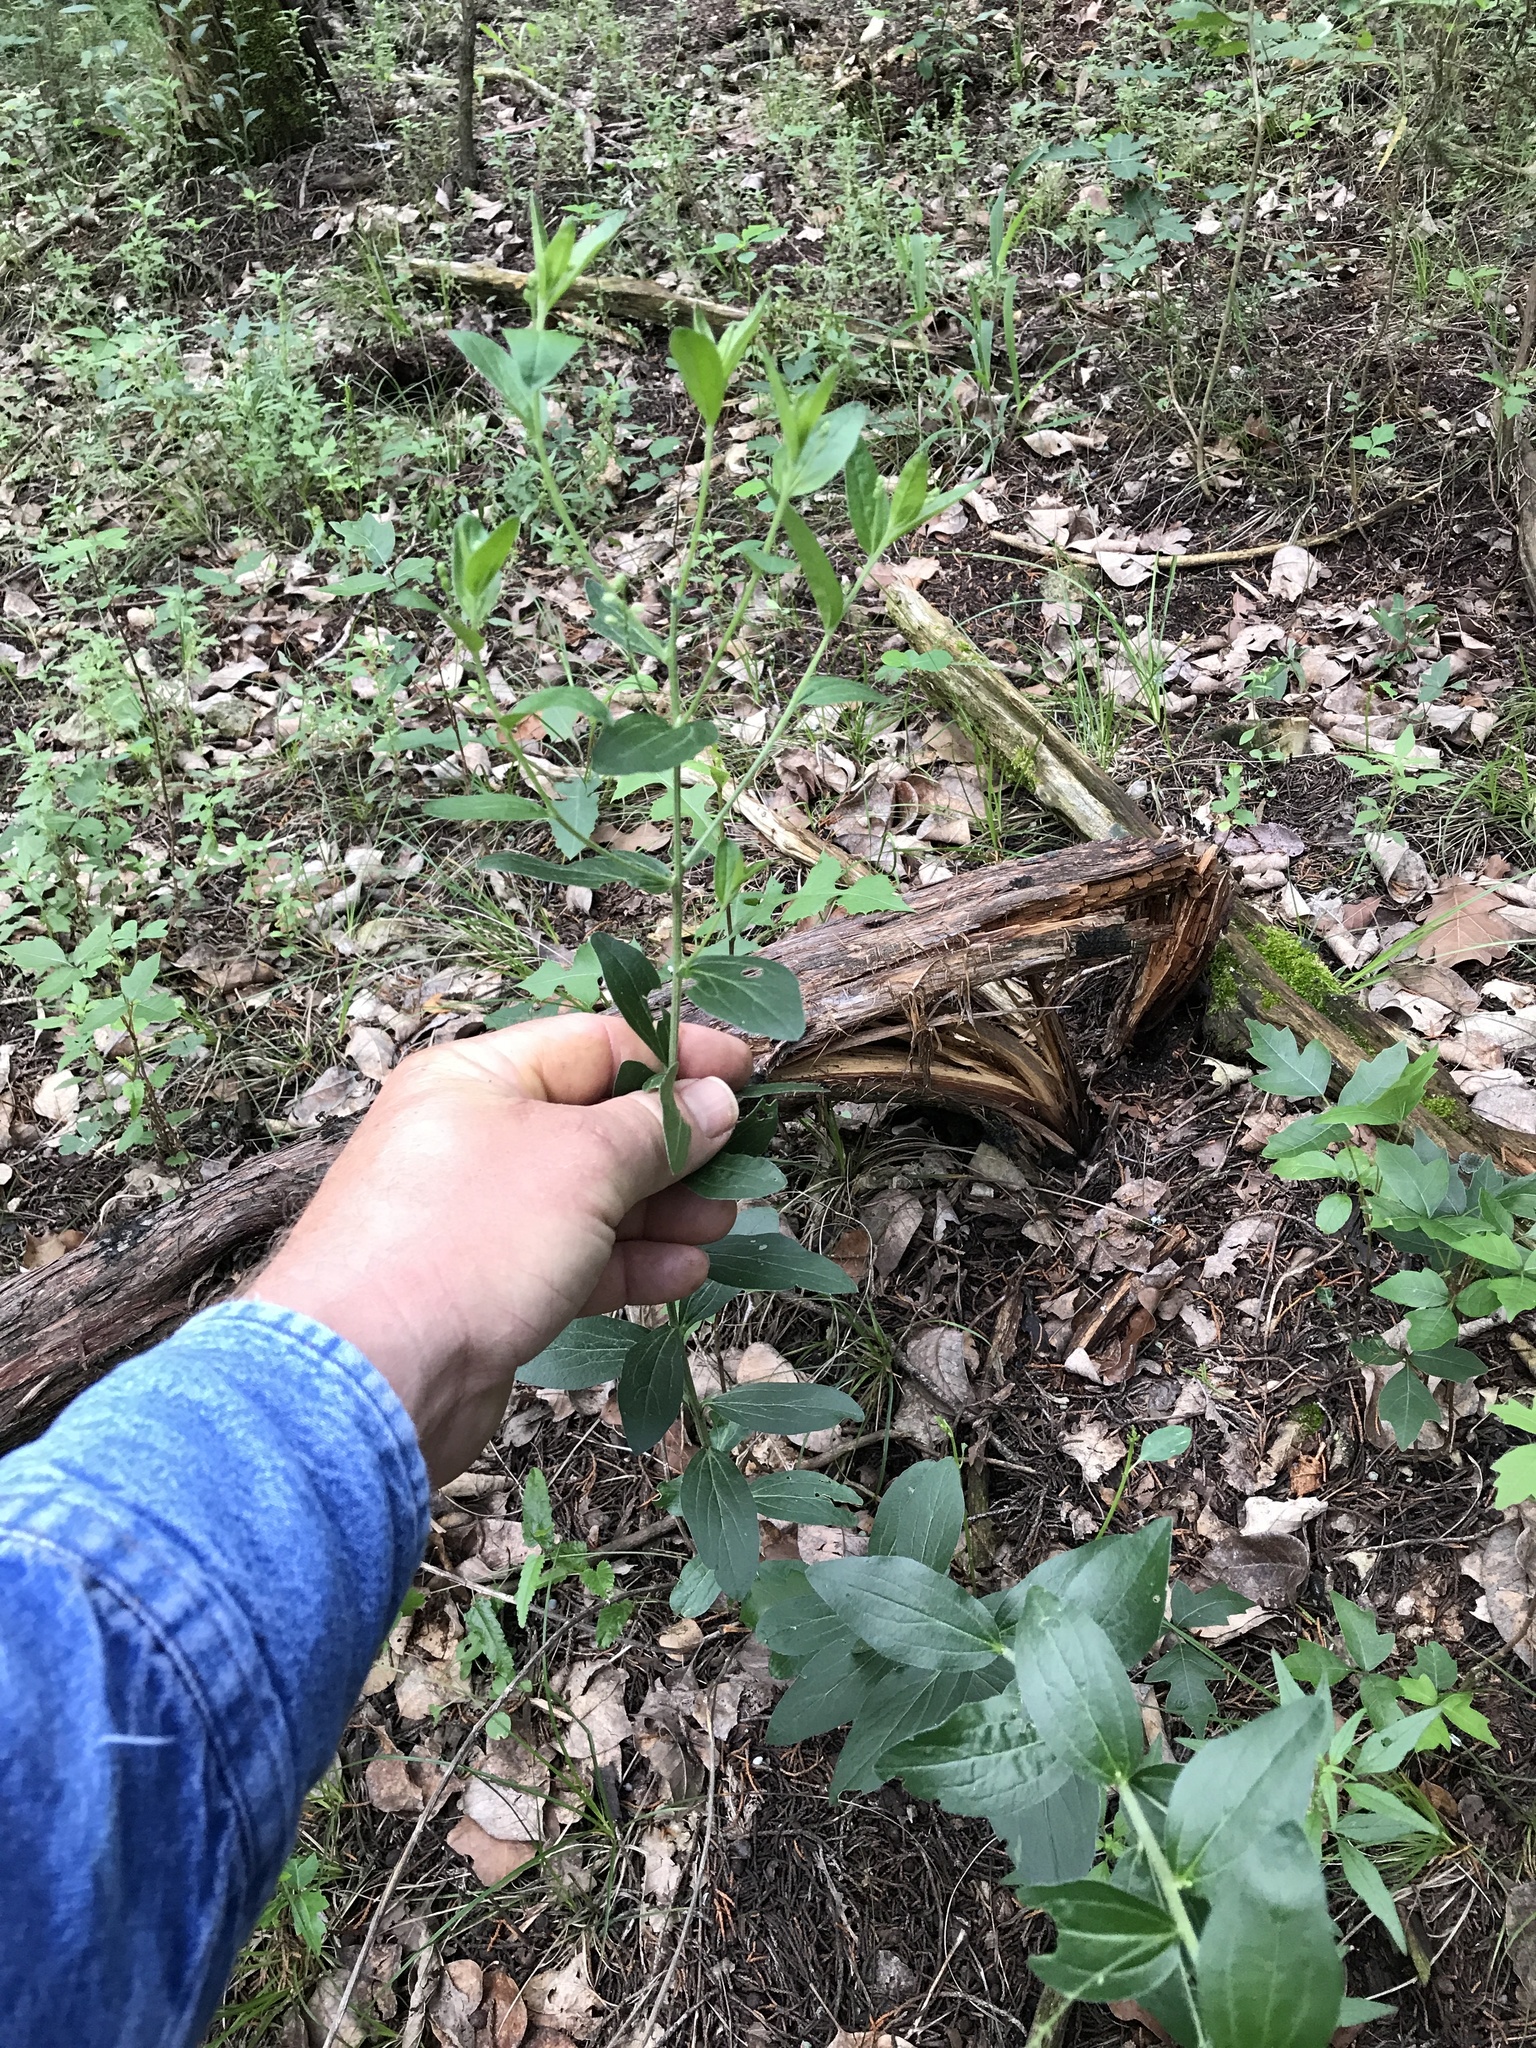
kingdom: Plantae
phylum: Tracheophyta
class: Magnoliopsida
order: Malpighiales
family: Euphorbiaceae
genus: Ditaxis
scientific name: Ditaxis simulans
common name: Plateau silverbush
